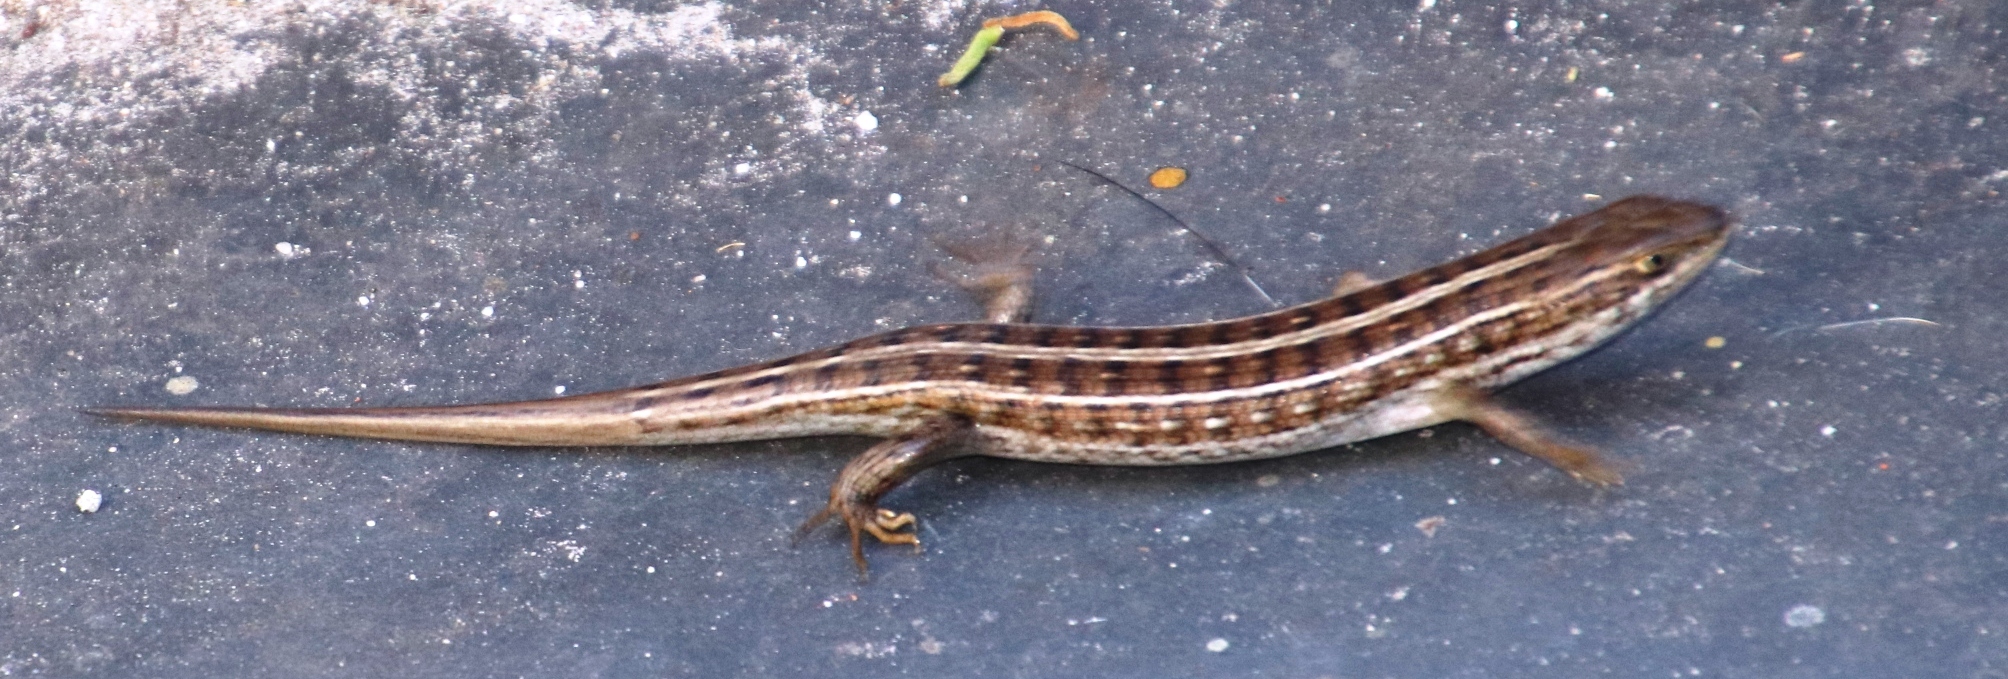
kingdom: Animalia
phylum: Chordata
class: Squamata
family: Scincidae
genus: Trachylepis
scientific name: Trachylepis capensis
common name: Cape skink
